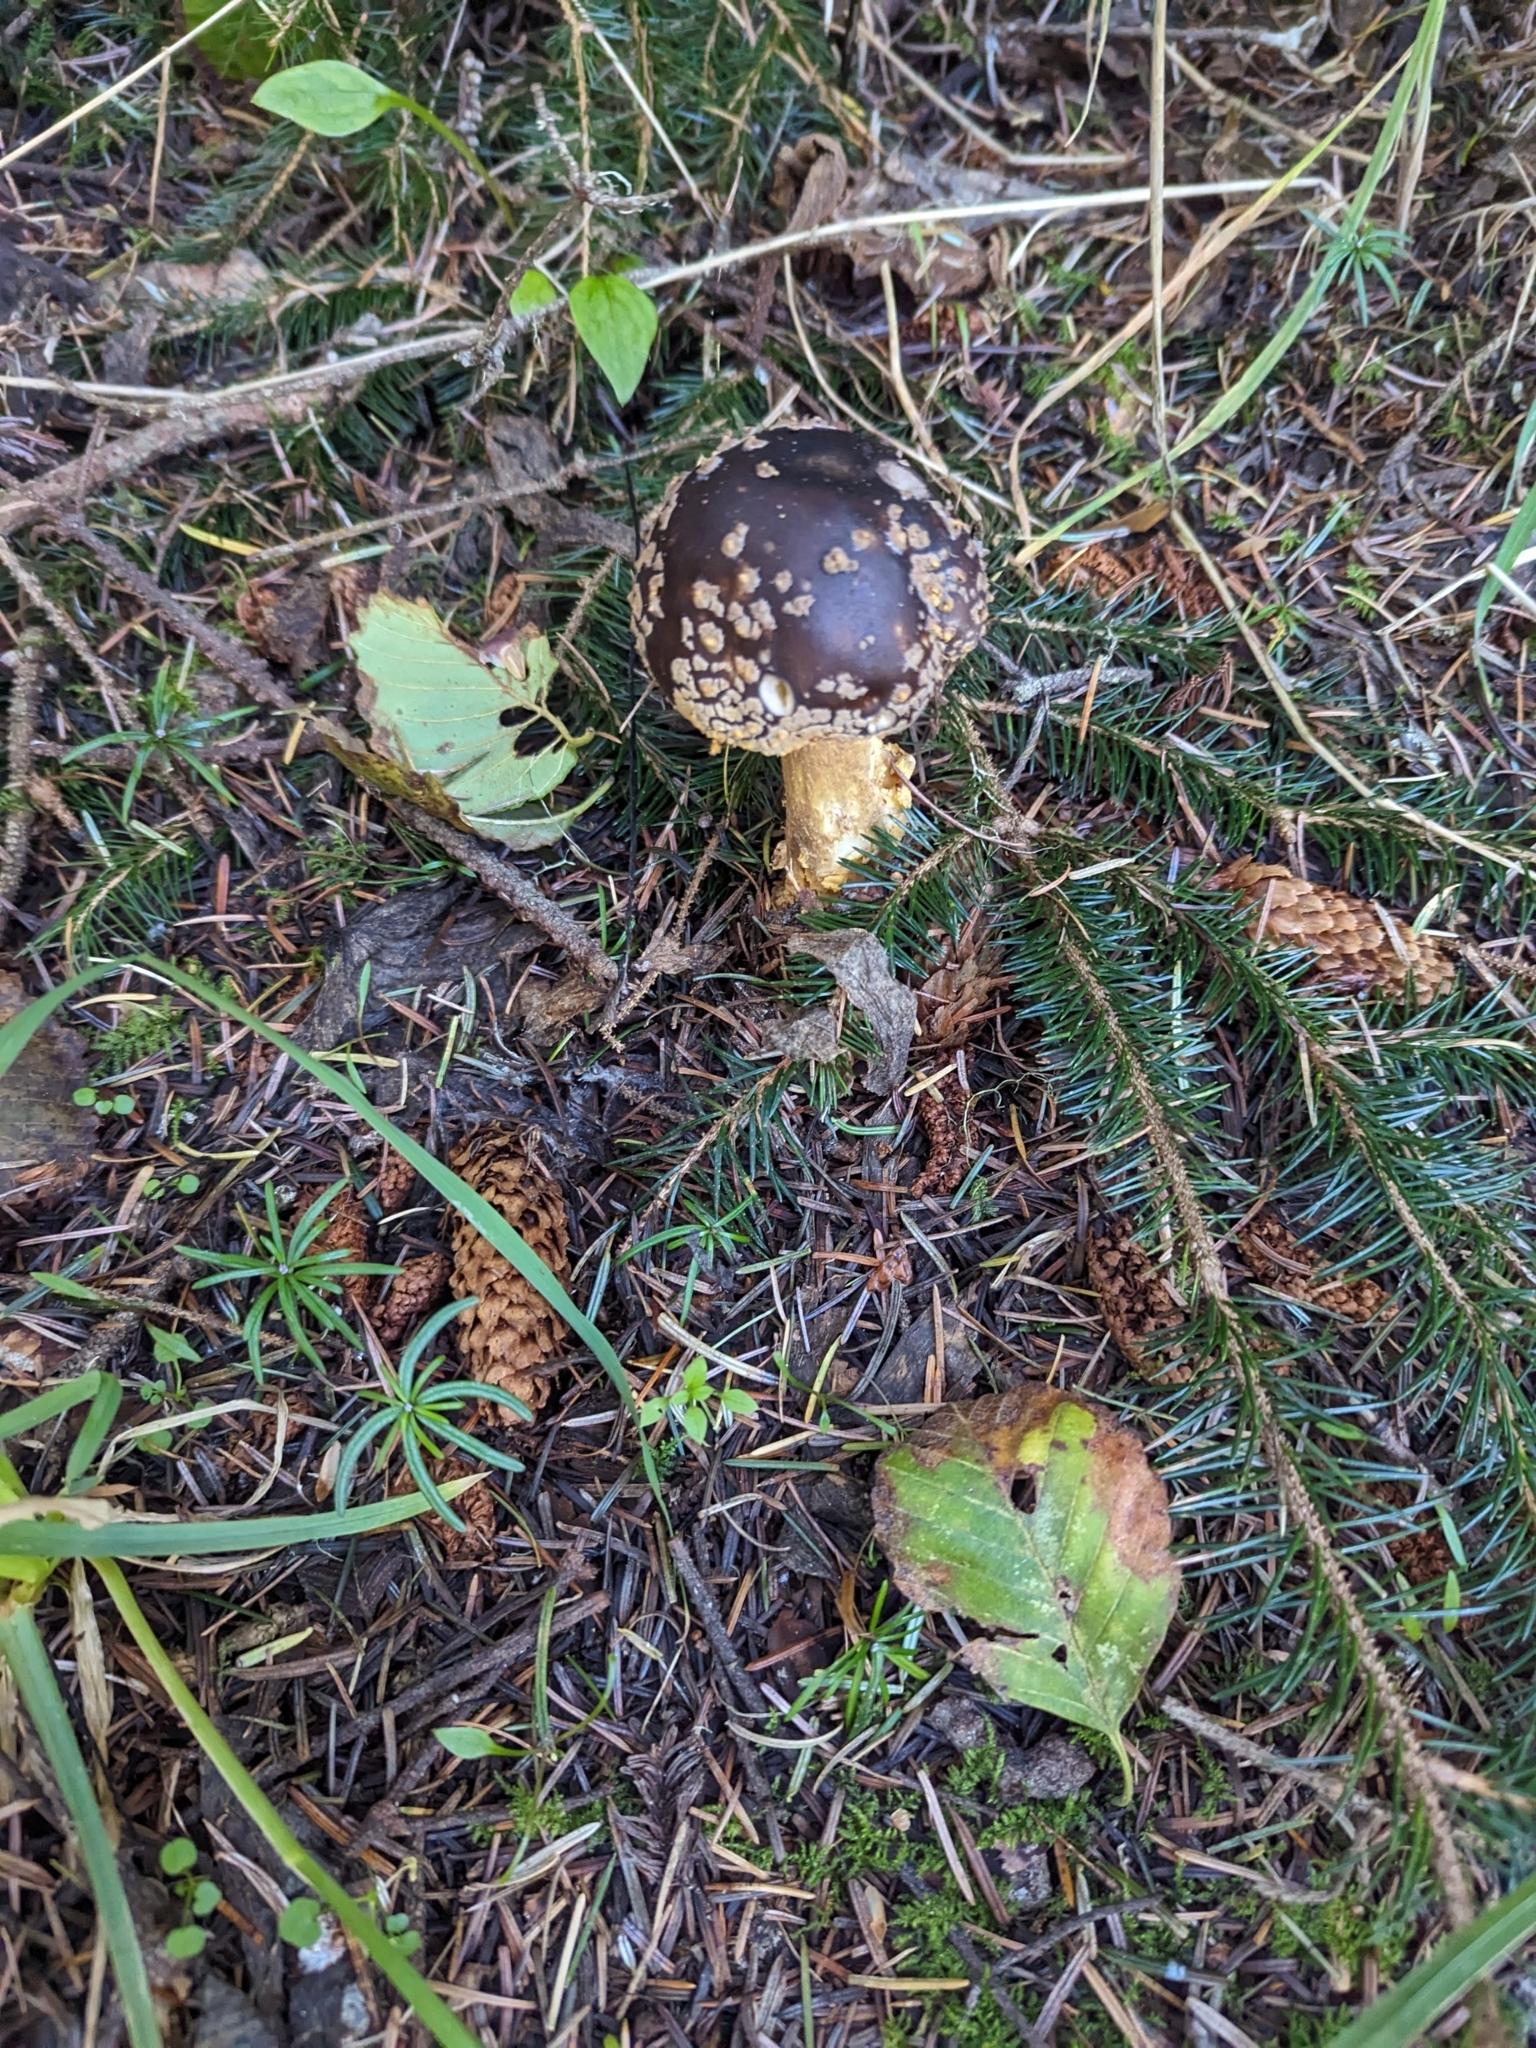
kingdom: Fungi
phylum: Basidiomycota
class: Agaricomycetes
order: Agaricales
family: Amanitaceae
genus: Amanita
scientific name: Amanita augusta
